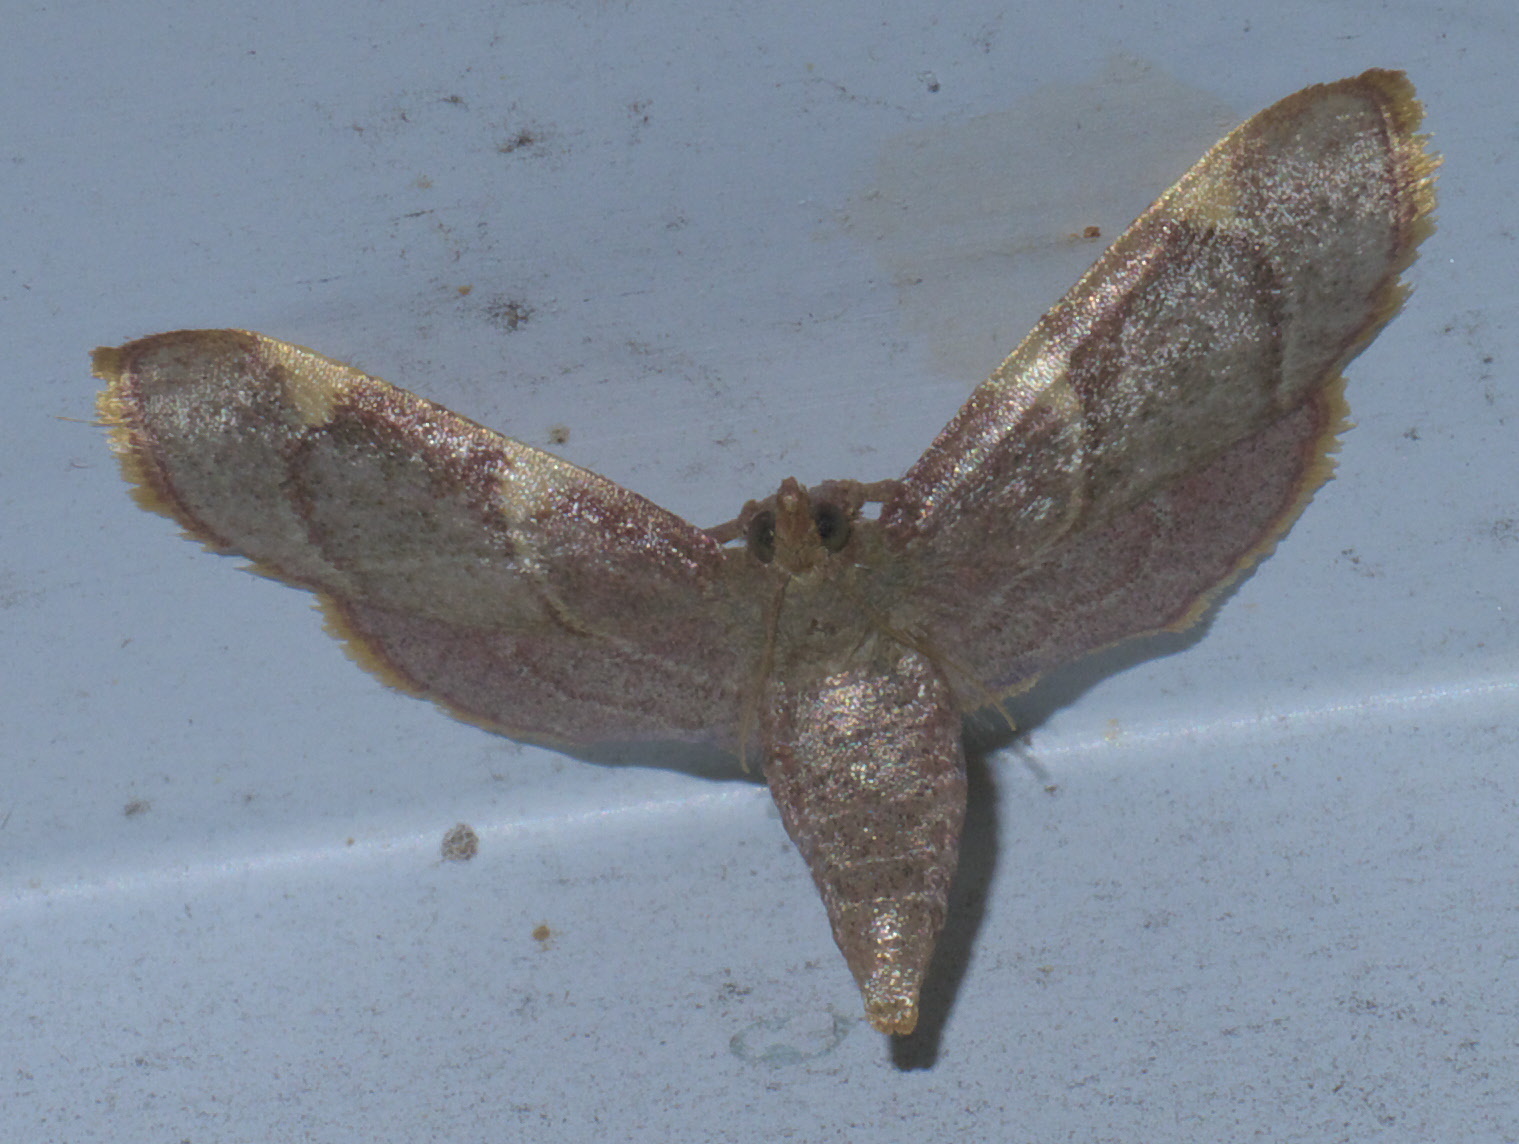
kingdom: Animalia
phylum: Arthropoda
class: Insecta
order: Lepidoptera
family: Pyralidae
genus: Hypsopygia
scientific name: Hypsopygia olinalis
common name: Yellow-fringed dolichomia moth
